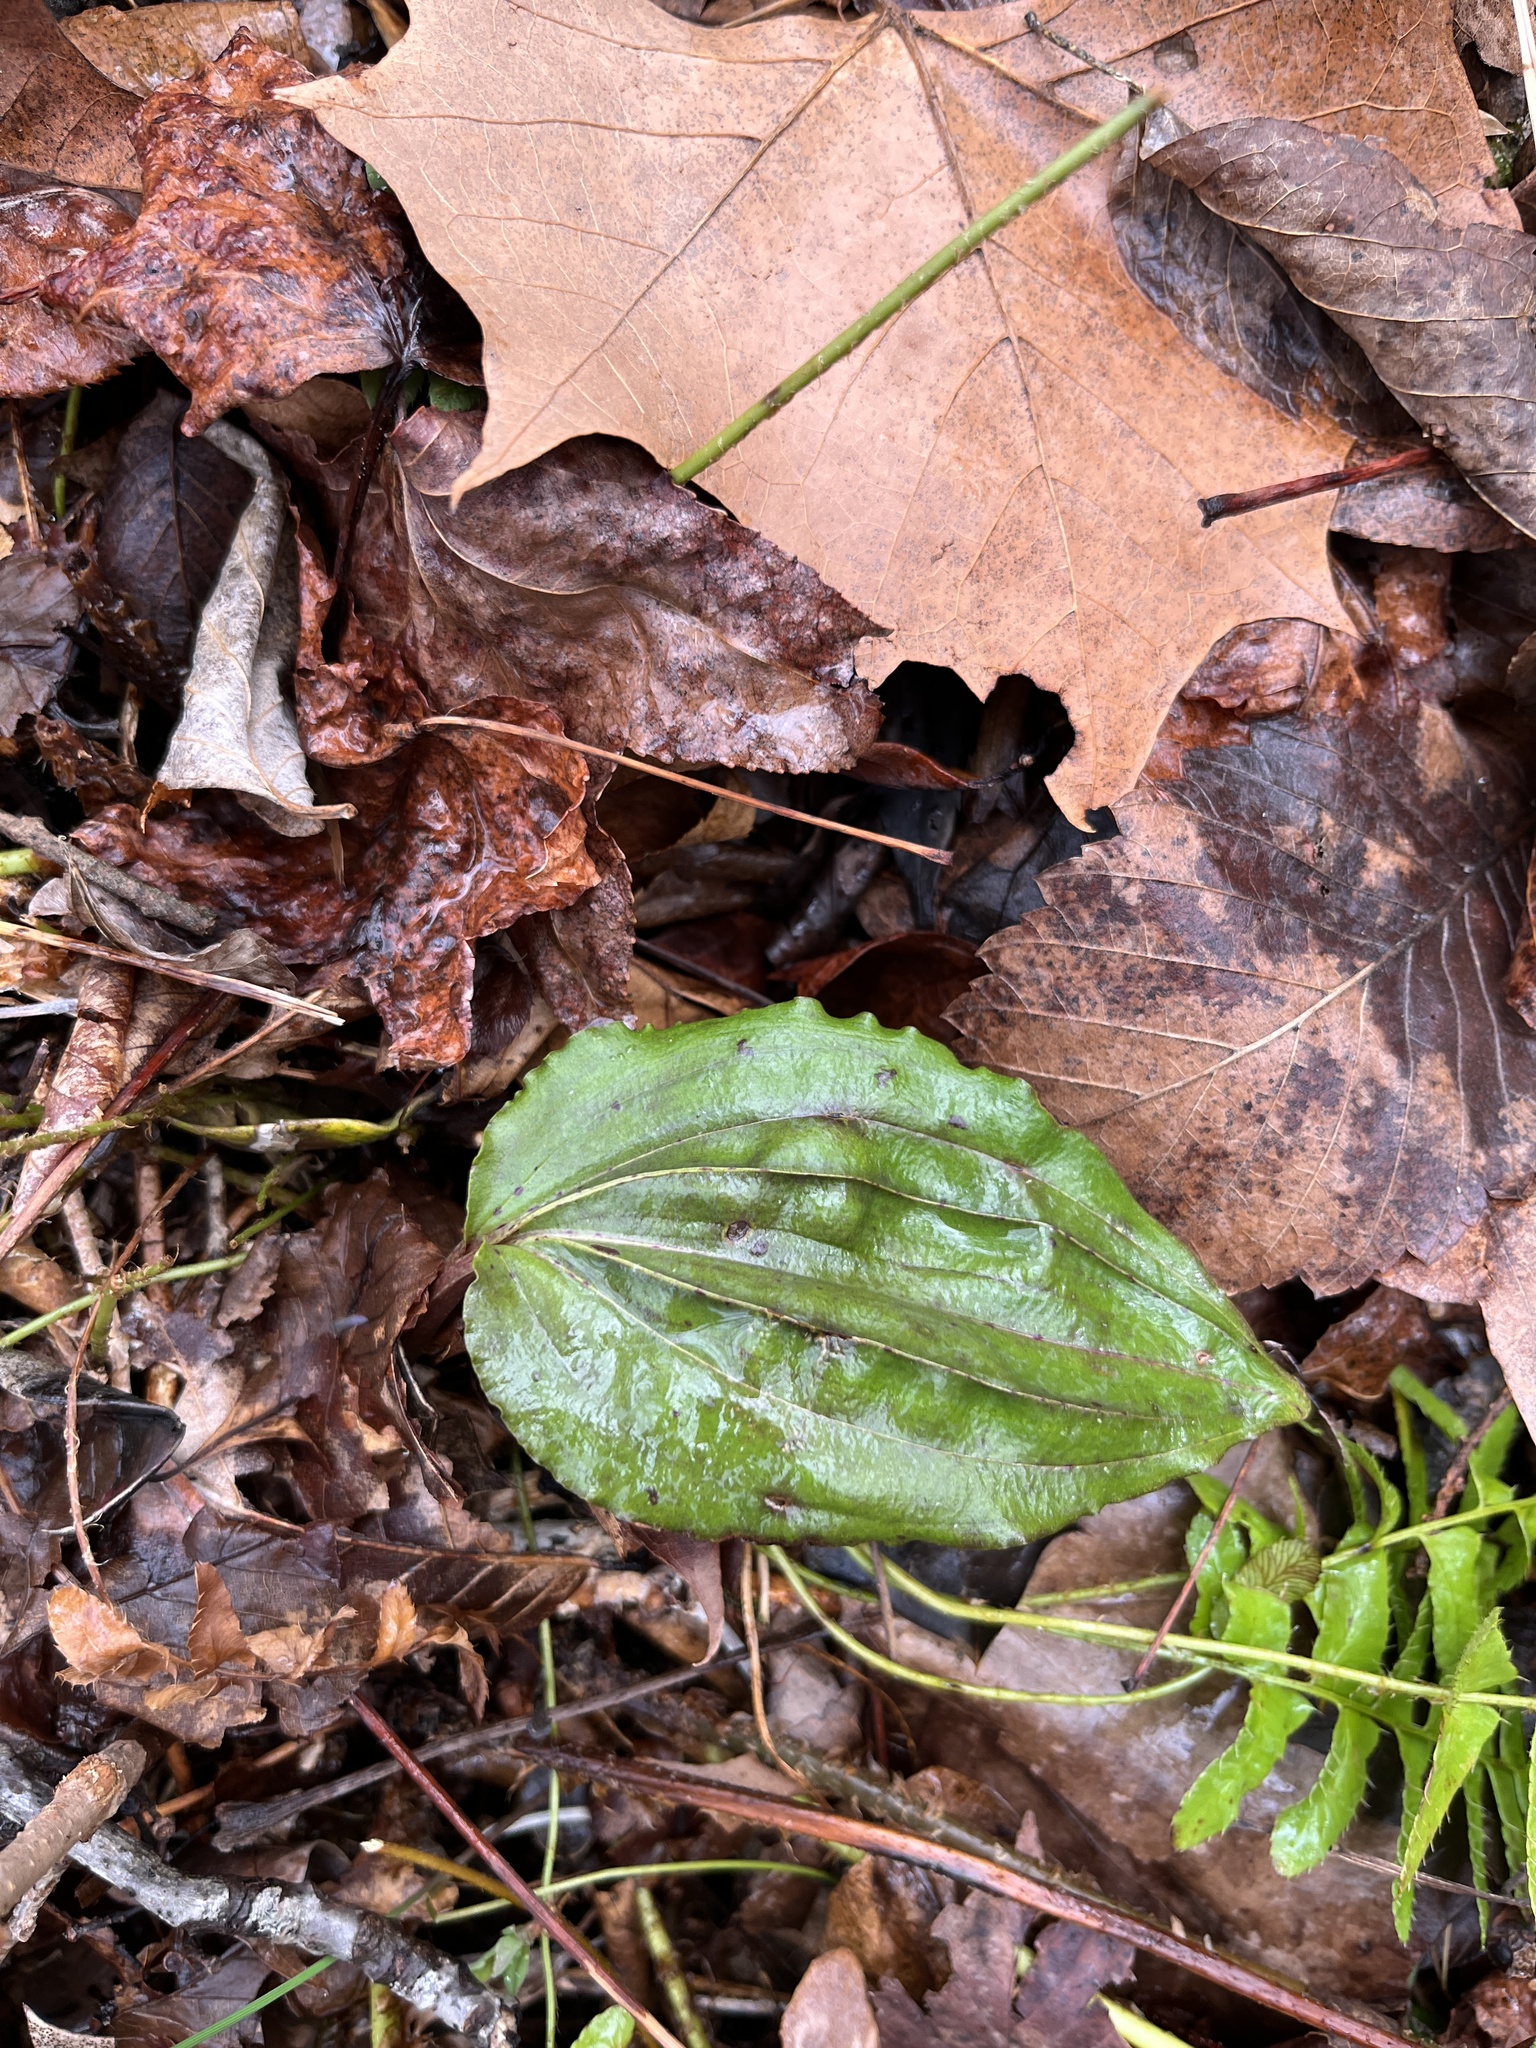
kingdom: Plantae
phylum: Tracheophyta
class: Liliopsida
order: Asparagales
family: Orchidaceae
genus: Tipularia
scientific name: Tipularia discolor
